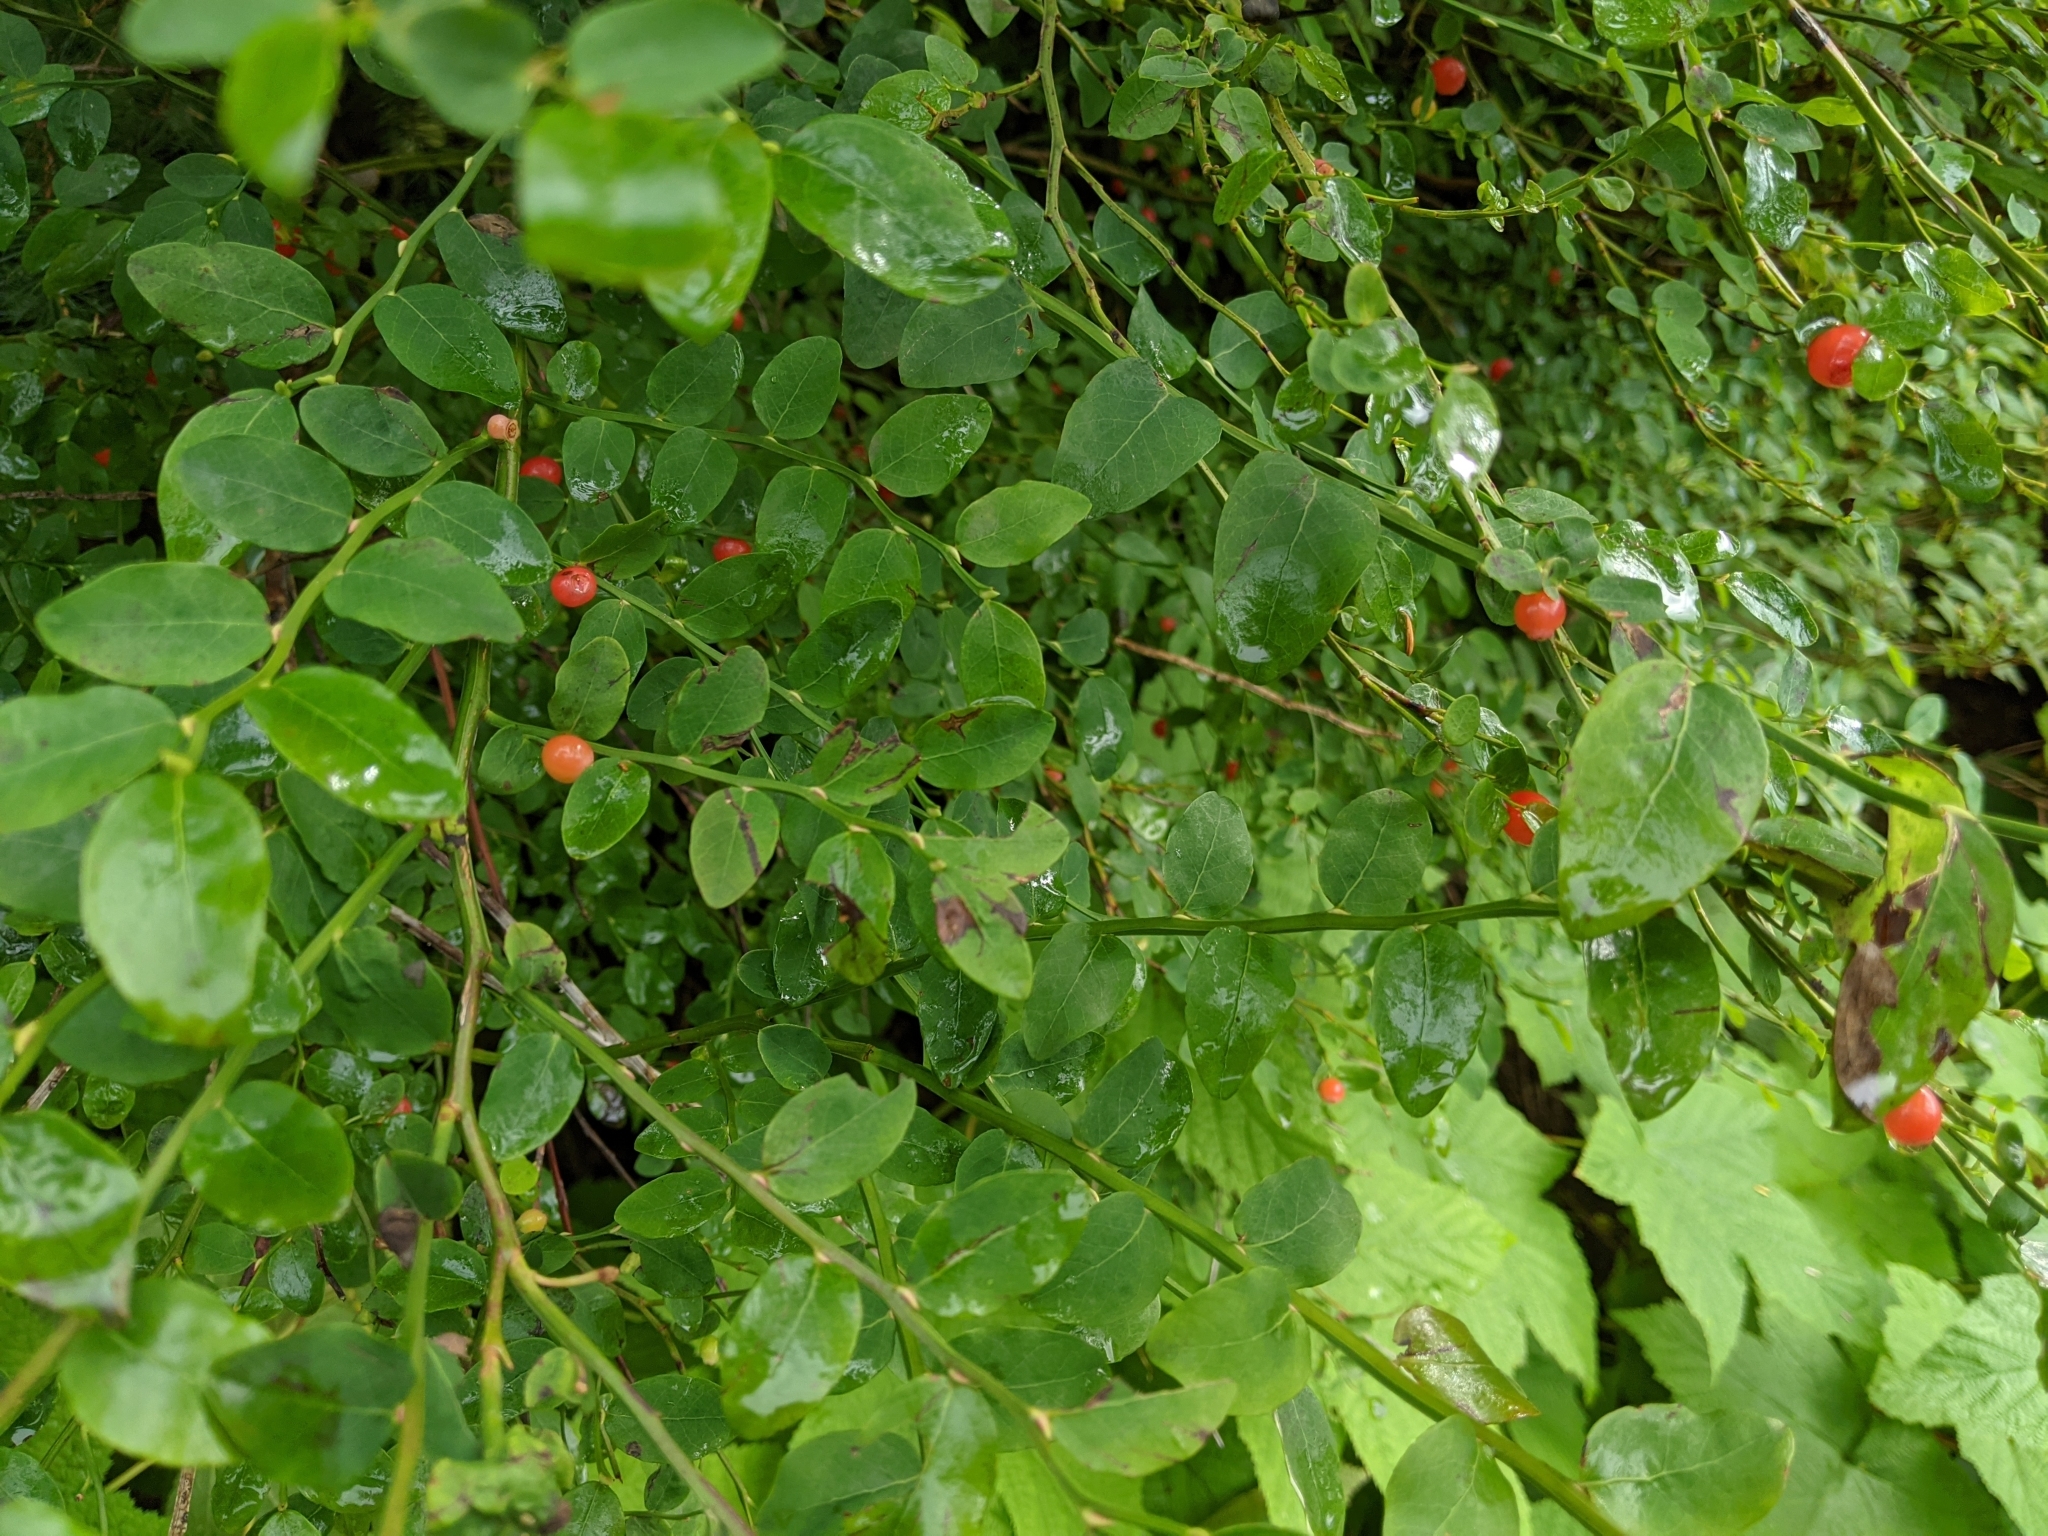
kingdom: Plantae
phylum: Tracheophyta
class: Magnoliopsida
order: Ericales
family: Ericaceae
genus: Vaccinium
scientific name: Vaccinium parvifolium
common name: Red-huckleberry
